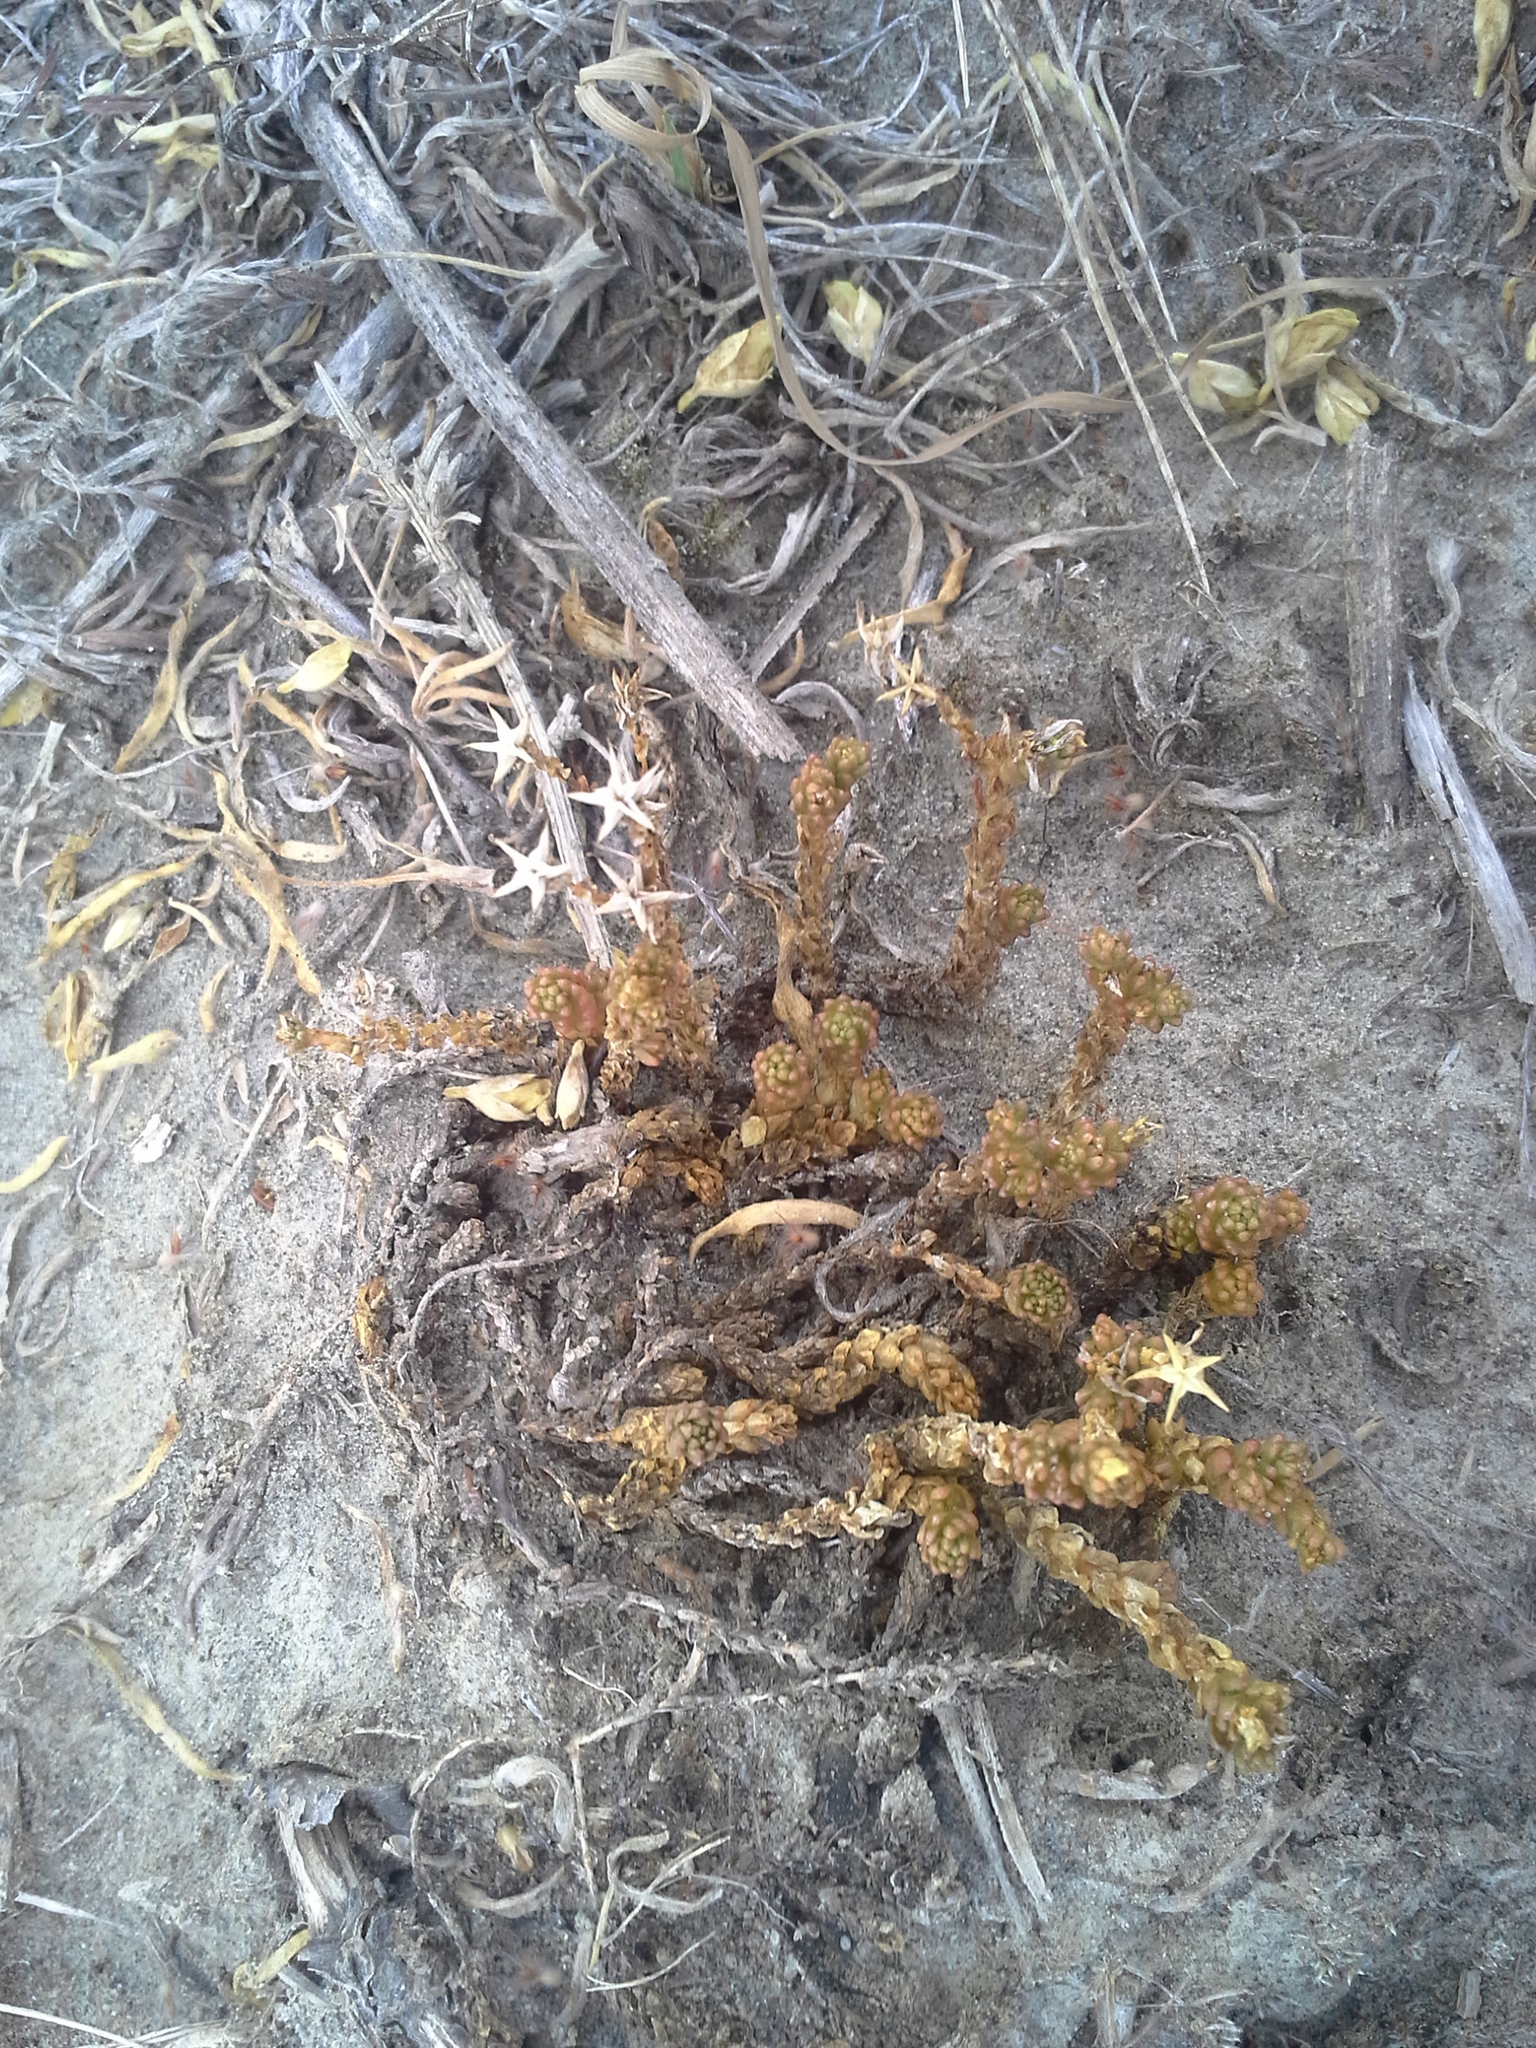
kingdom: Plantae
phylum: Tracheophyta
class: Magnoliopsida
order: Saxifragales
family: Crassulaceae
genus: Sedum
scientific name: Sedum acre
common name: Biting stonecrop
